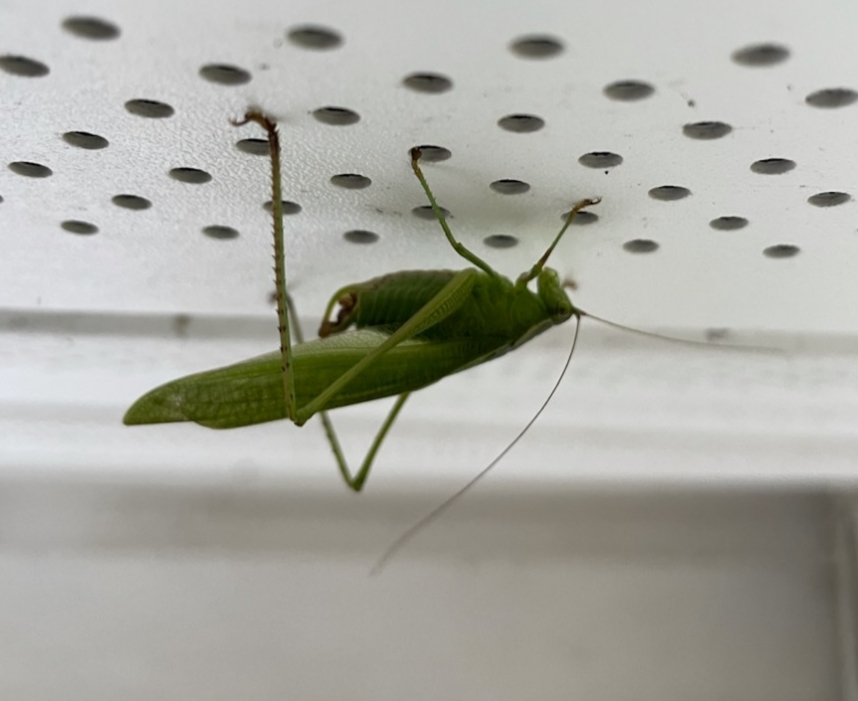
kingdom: Animalia
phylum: Arthropoda
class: Insecta
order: Orthoptera
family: Tettigoniidae
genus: Scudderia
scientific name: Scudderia furcata
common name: Fork-tailed bush katydid
